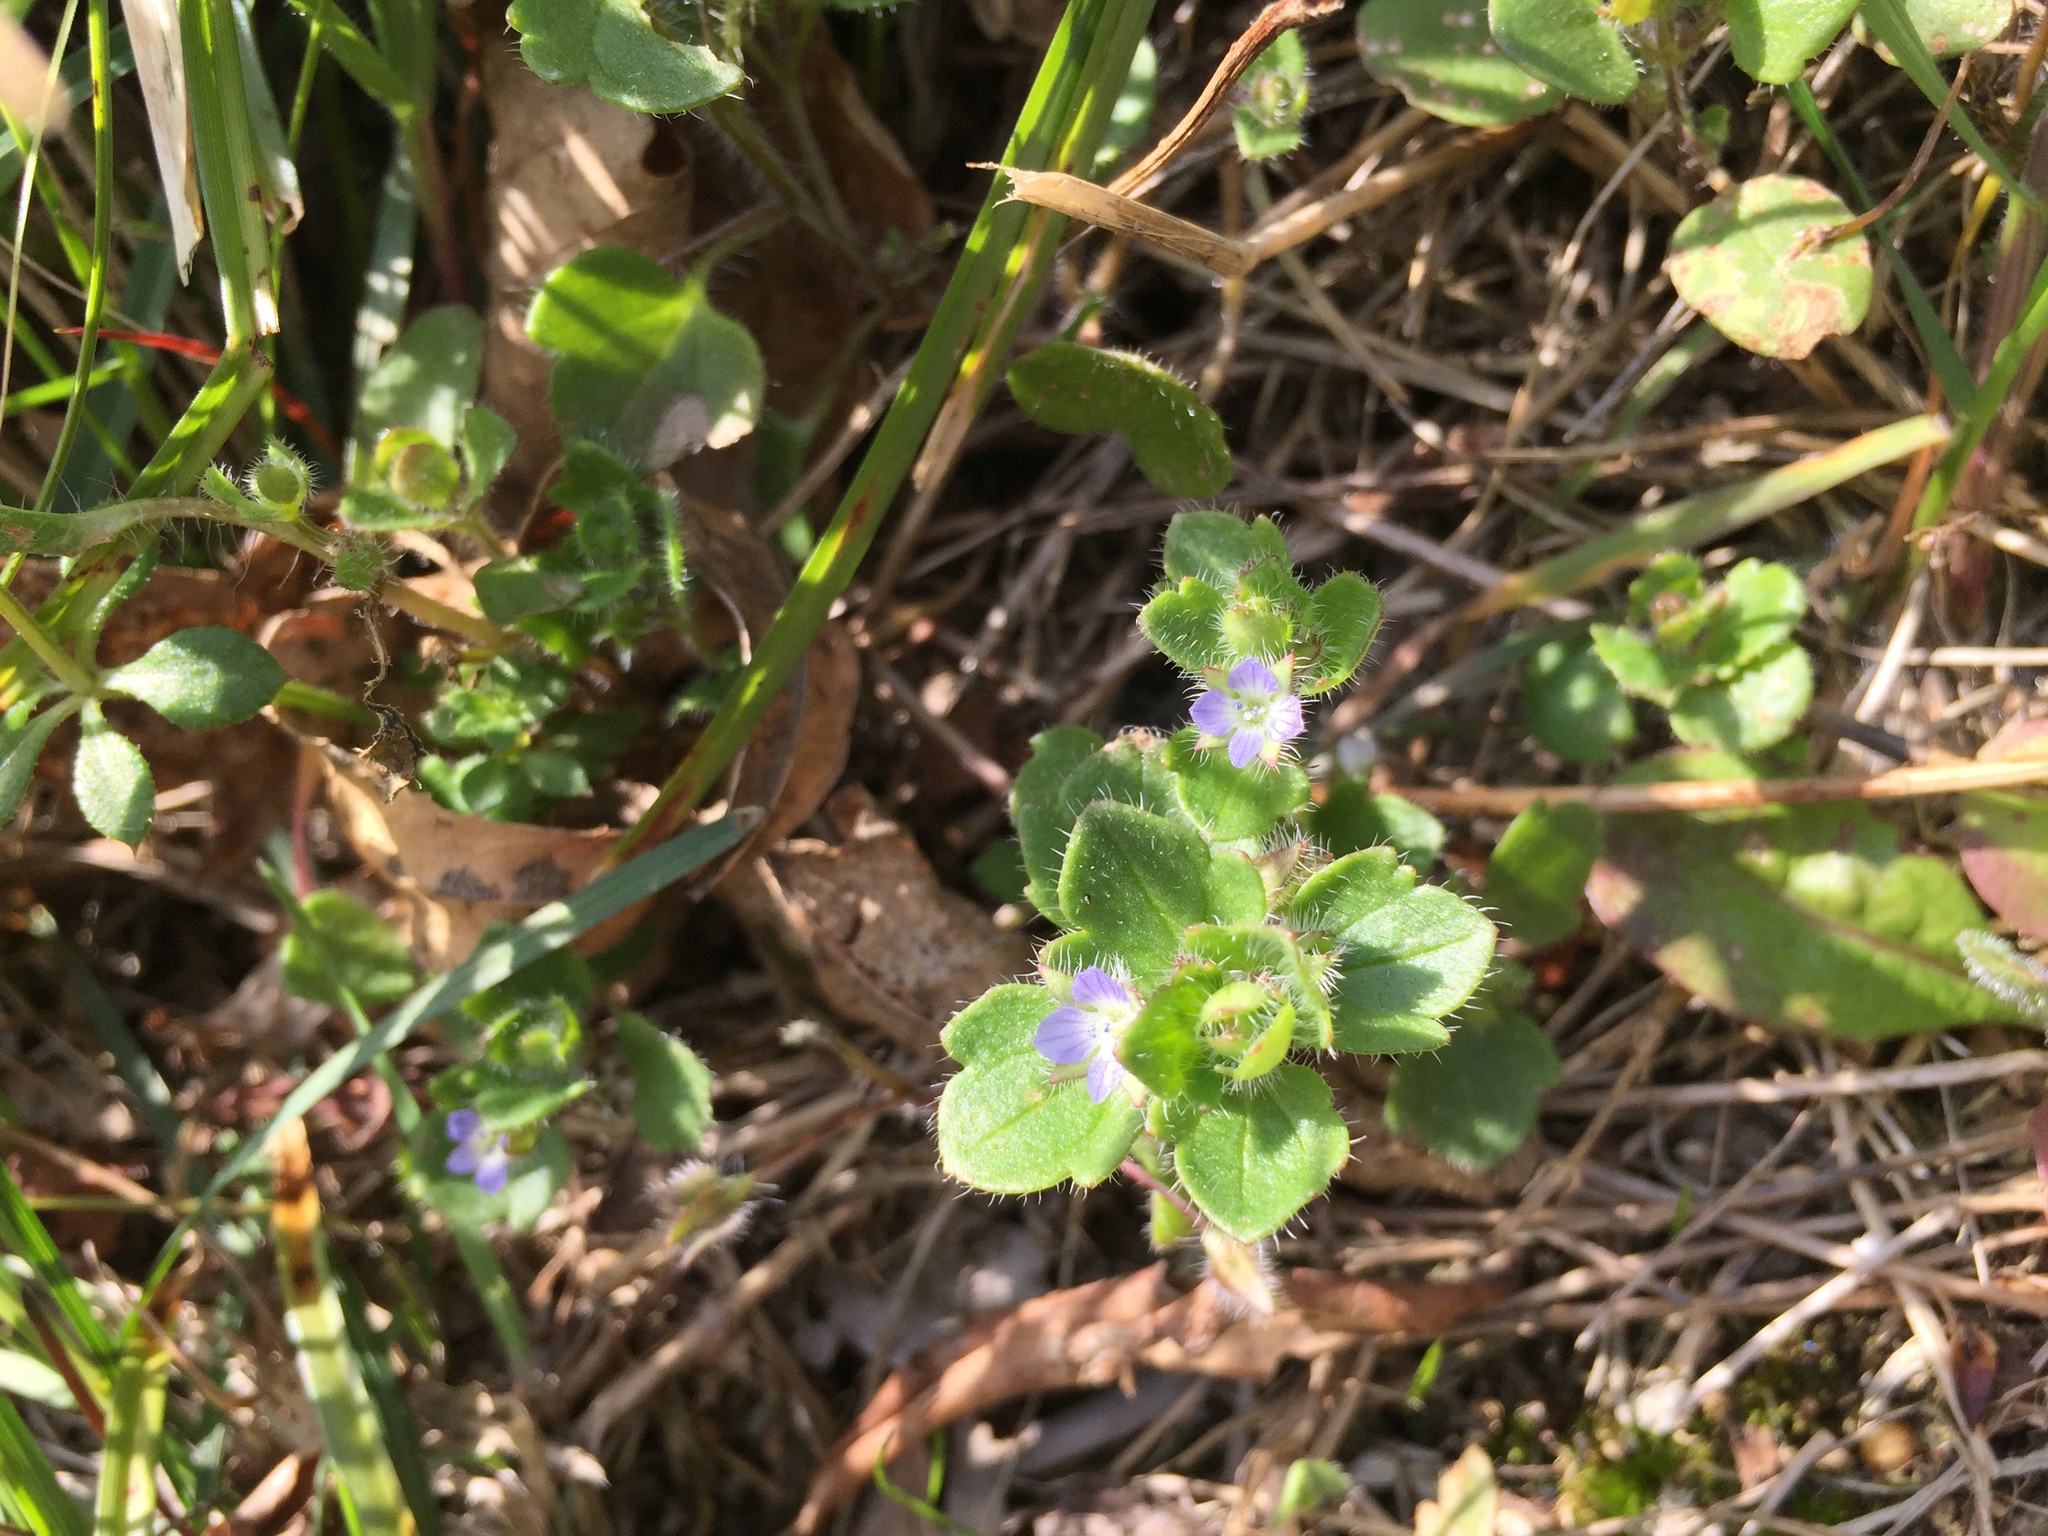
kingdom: Plantae
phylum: Tracheophyta
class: Magnoliopsida
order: Lamiales
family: Plantaginaceae
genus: Veronica
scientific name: Veronica hederifolia
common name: Ivy-leaved speedwell
